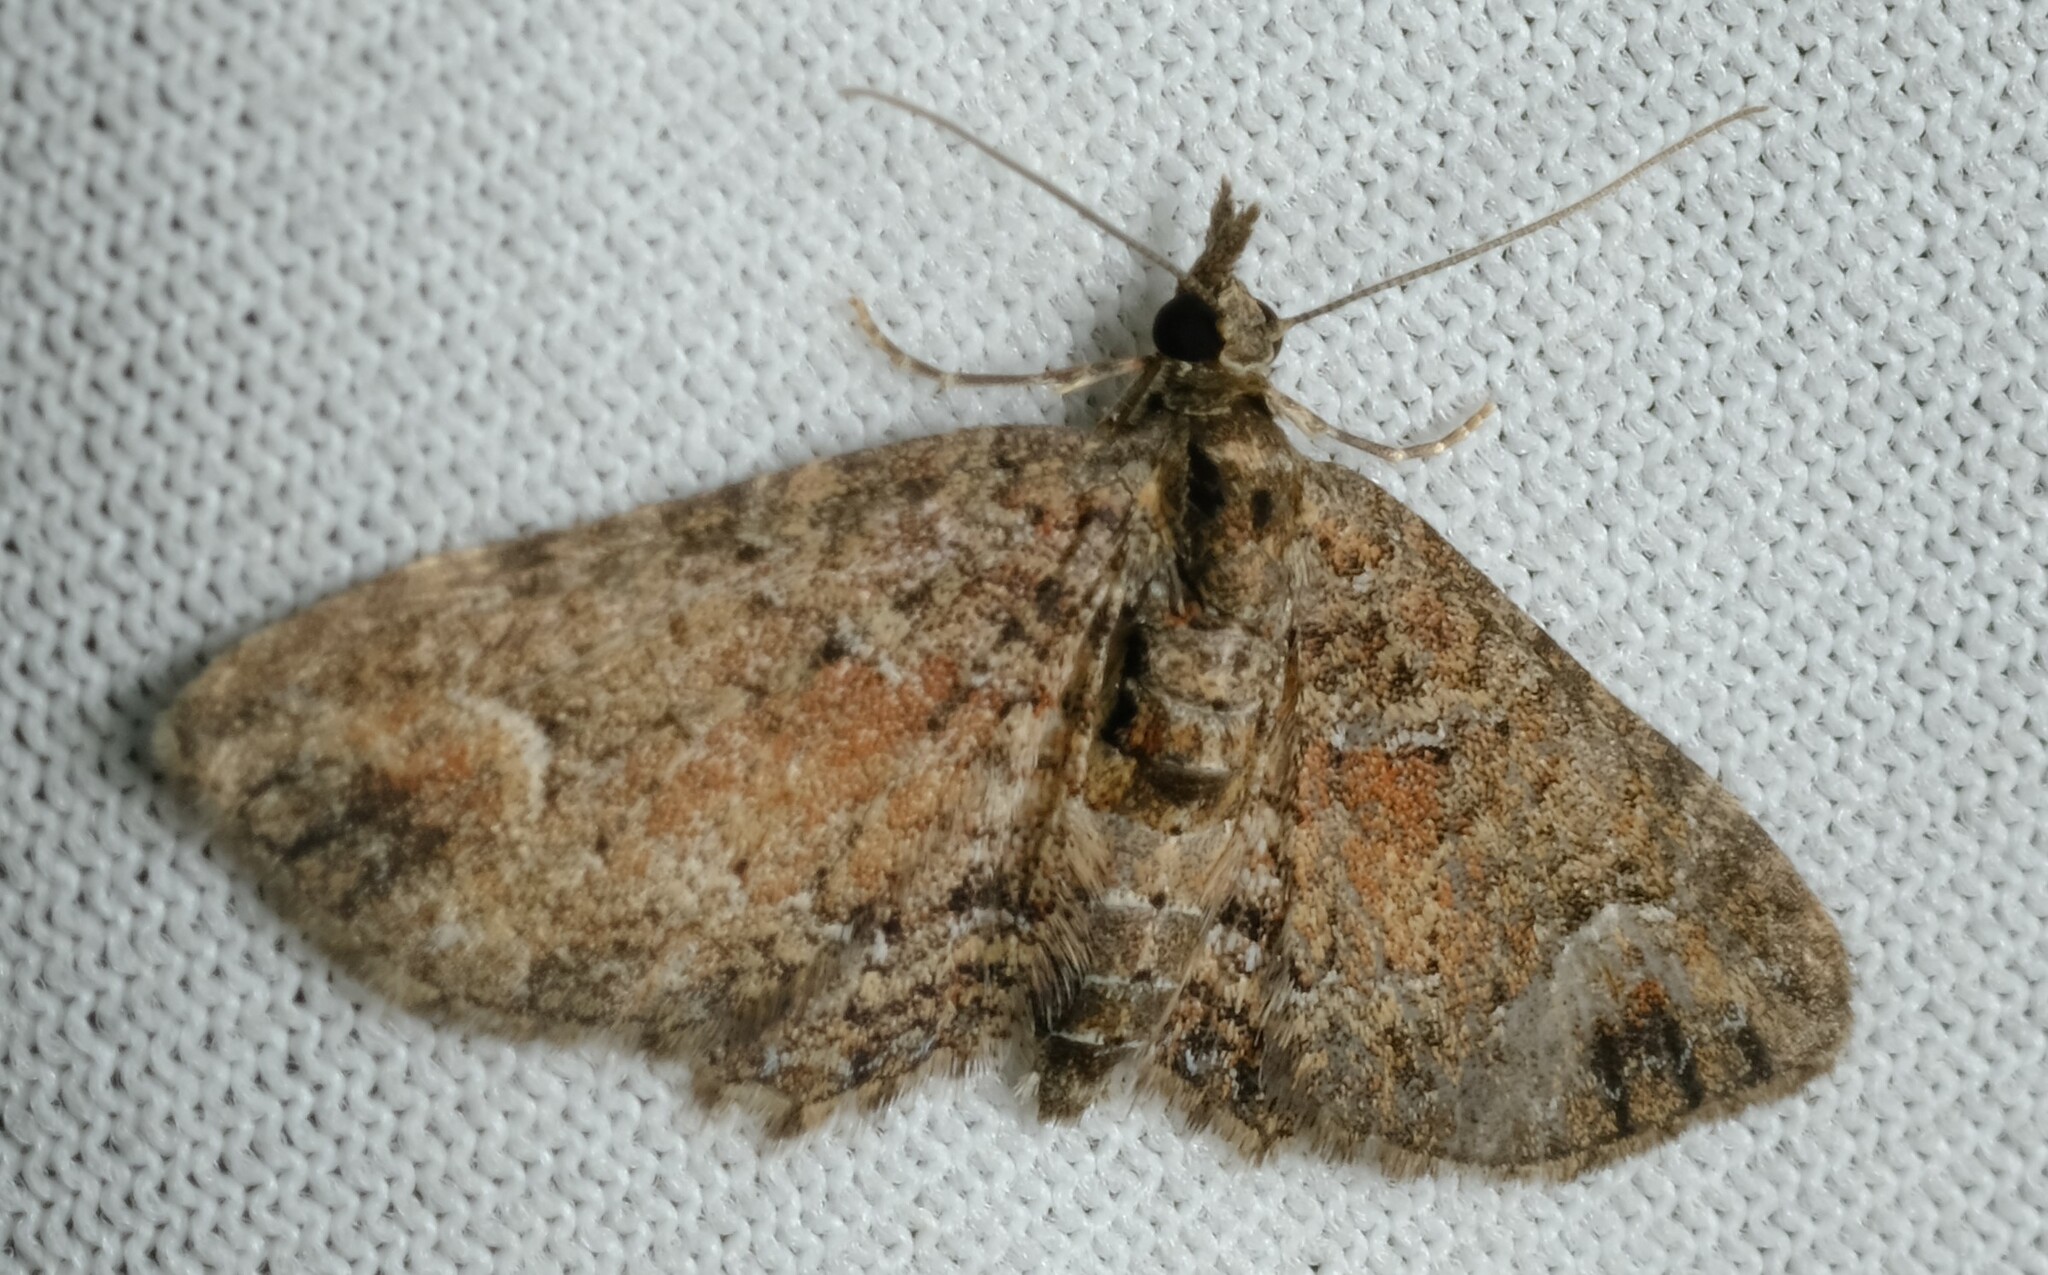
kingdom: Animalia
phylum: Arthropoda
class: Insecta
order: Lepidoptera
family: Geometridae
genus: Pasiphilodes
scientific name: Pasiphilodes testulata
